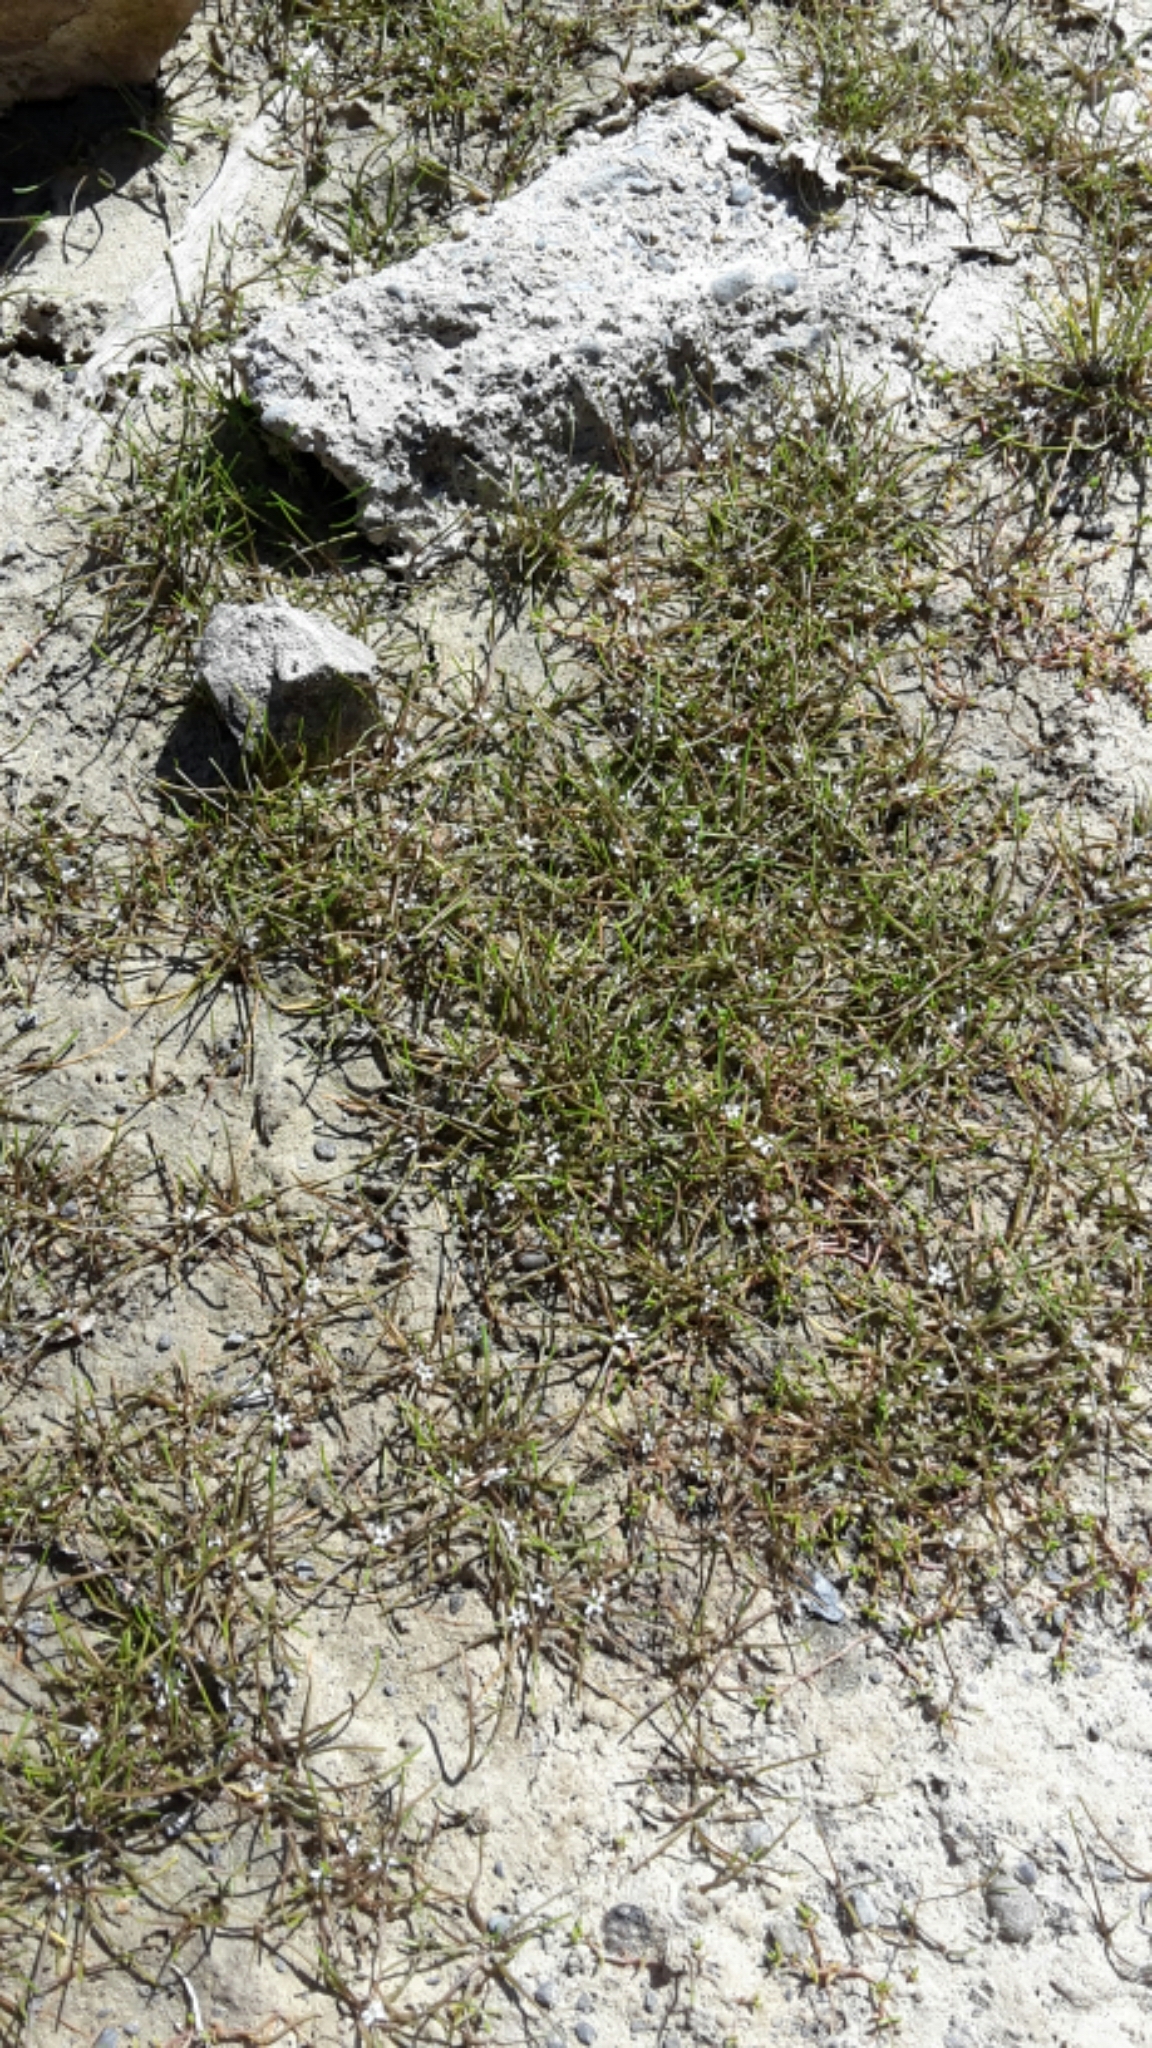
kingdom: Plantae
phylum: Tracheophyta
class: Magnoliopsida
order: Lamiales
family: Scrophulariaceae
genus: Limosella
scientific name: Limosella australis
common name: Welsh mudwort
